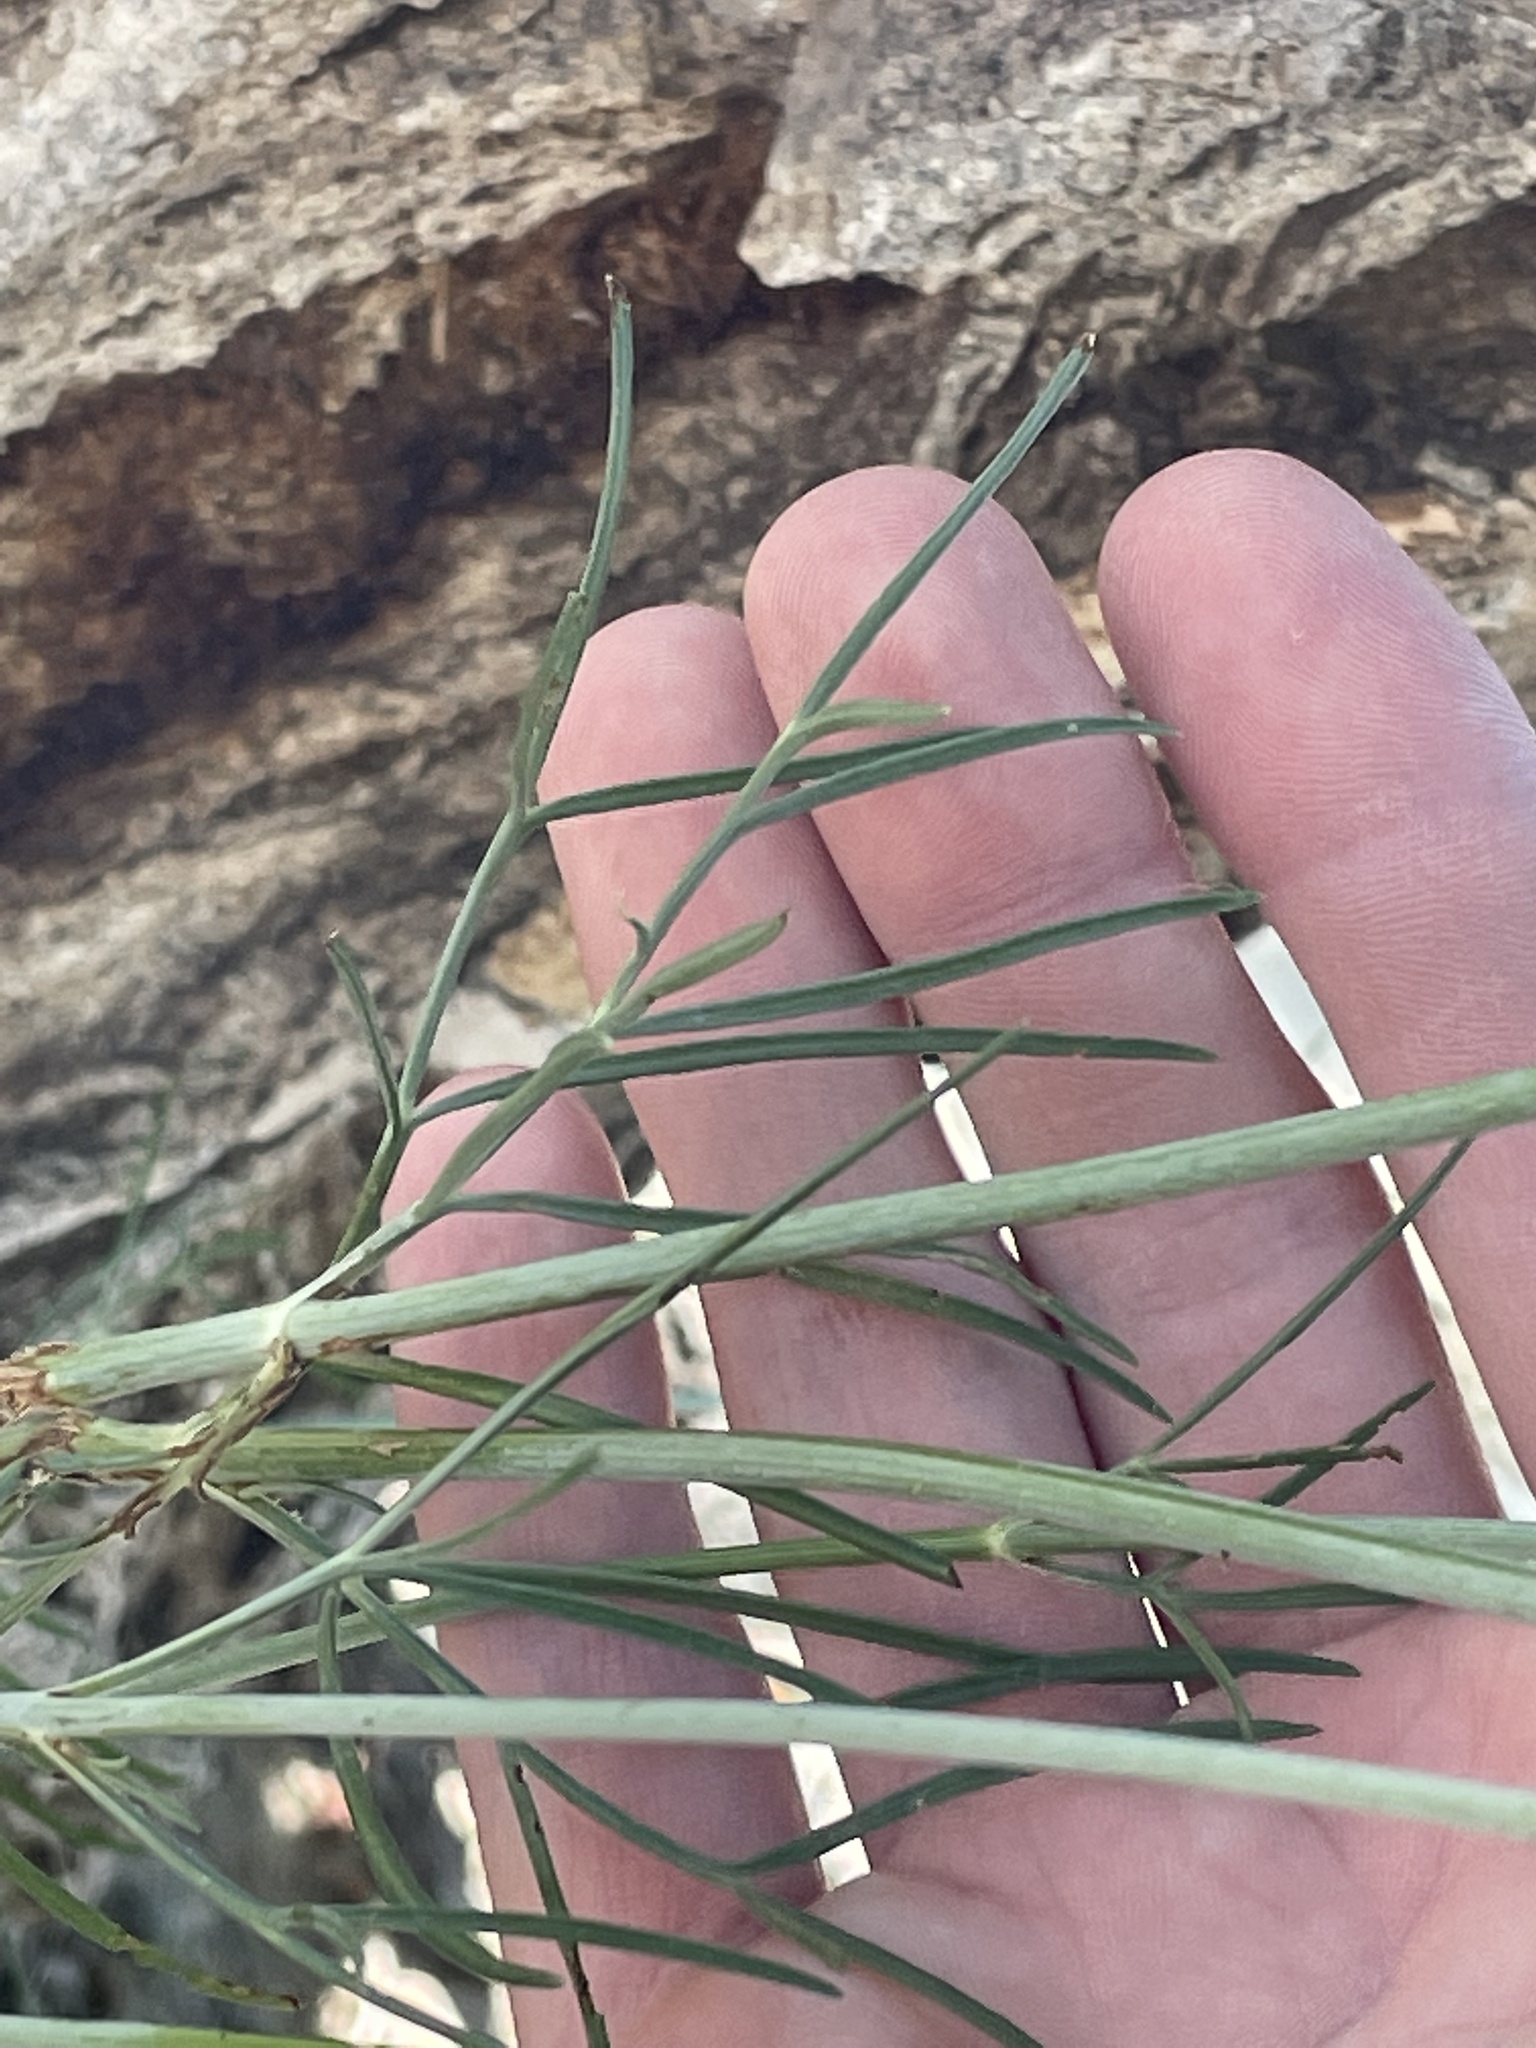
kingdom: Plantae
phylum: Tracheophyta
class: Magnoliopsida
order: Asterales
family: Asteraceae
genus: Thelesperma
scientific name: Thelesperma megapotamicum
